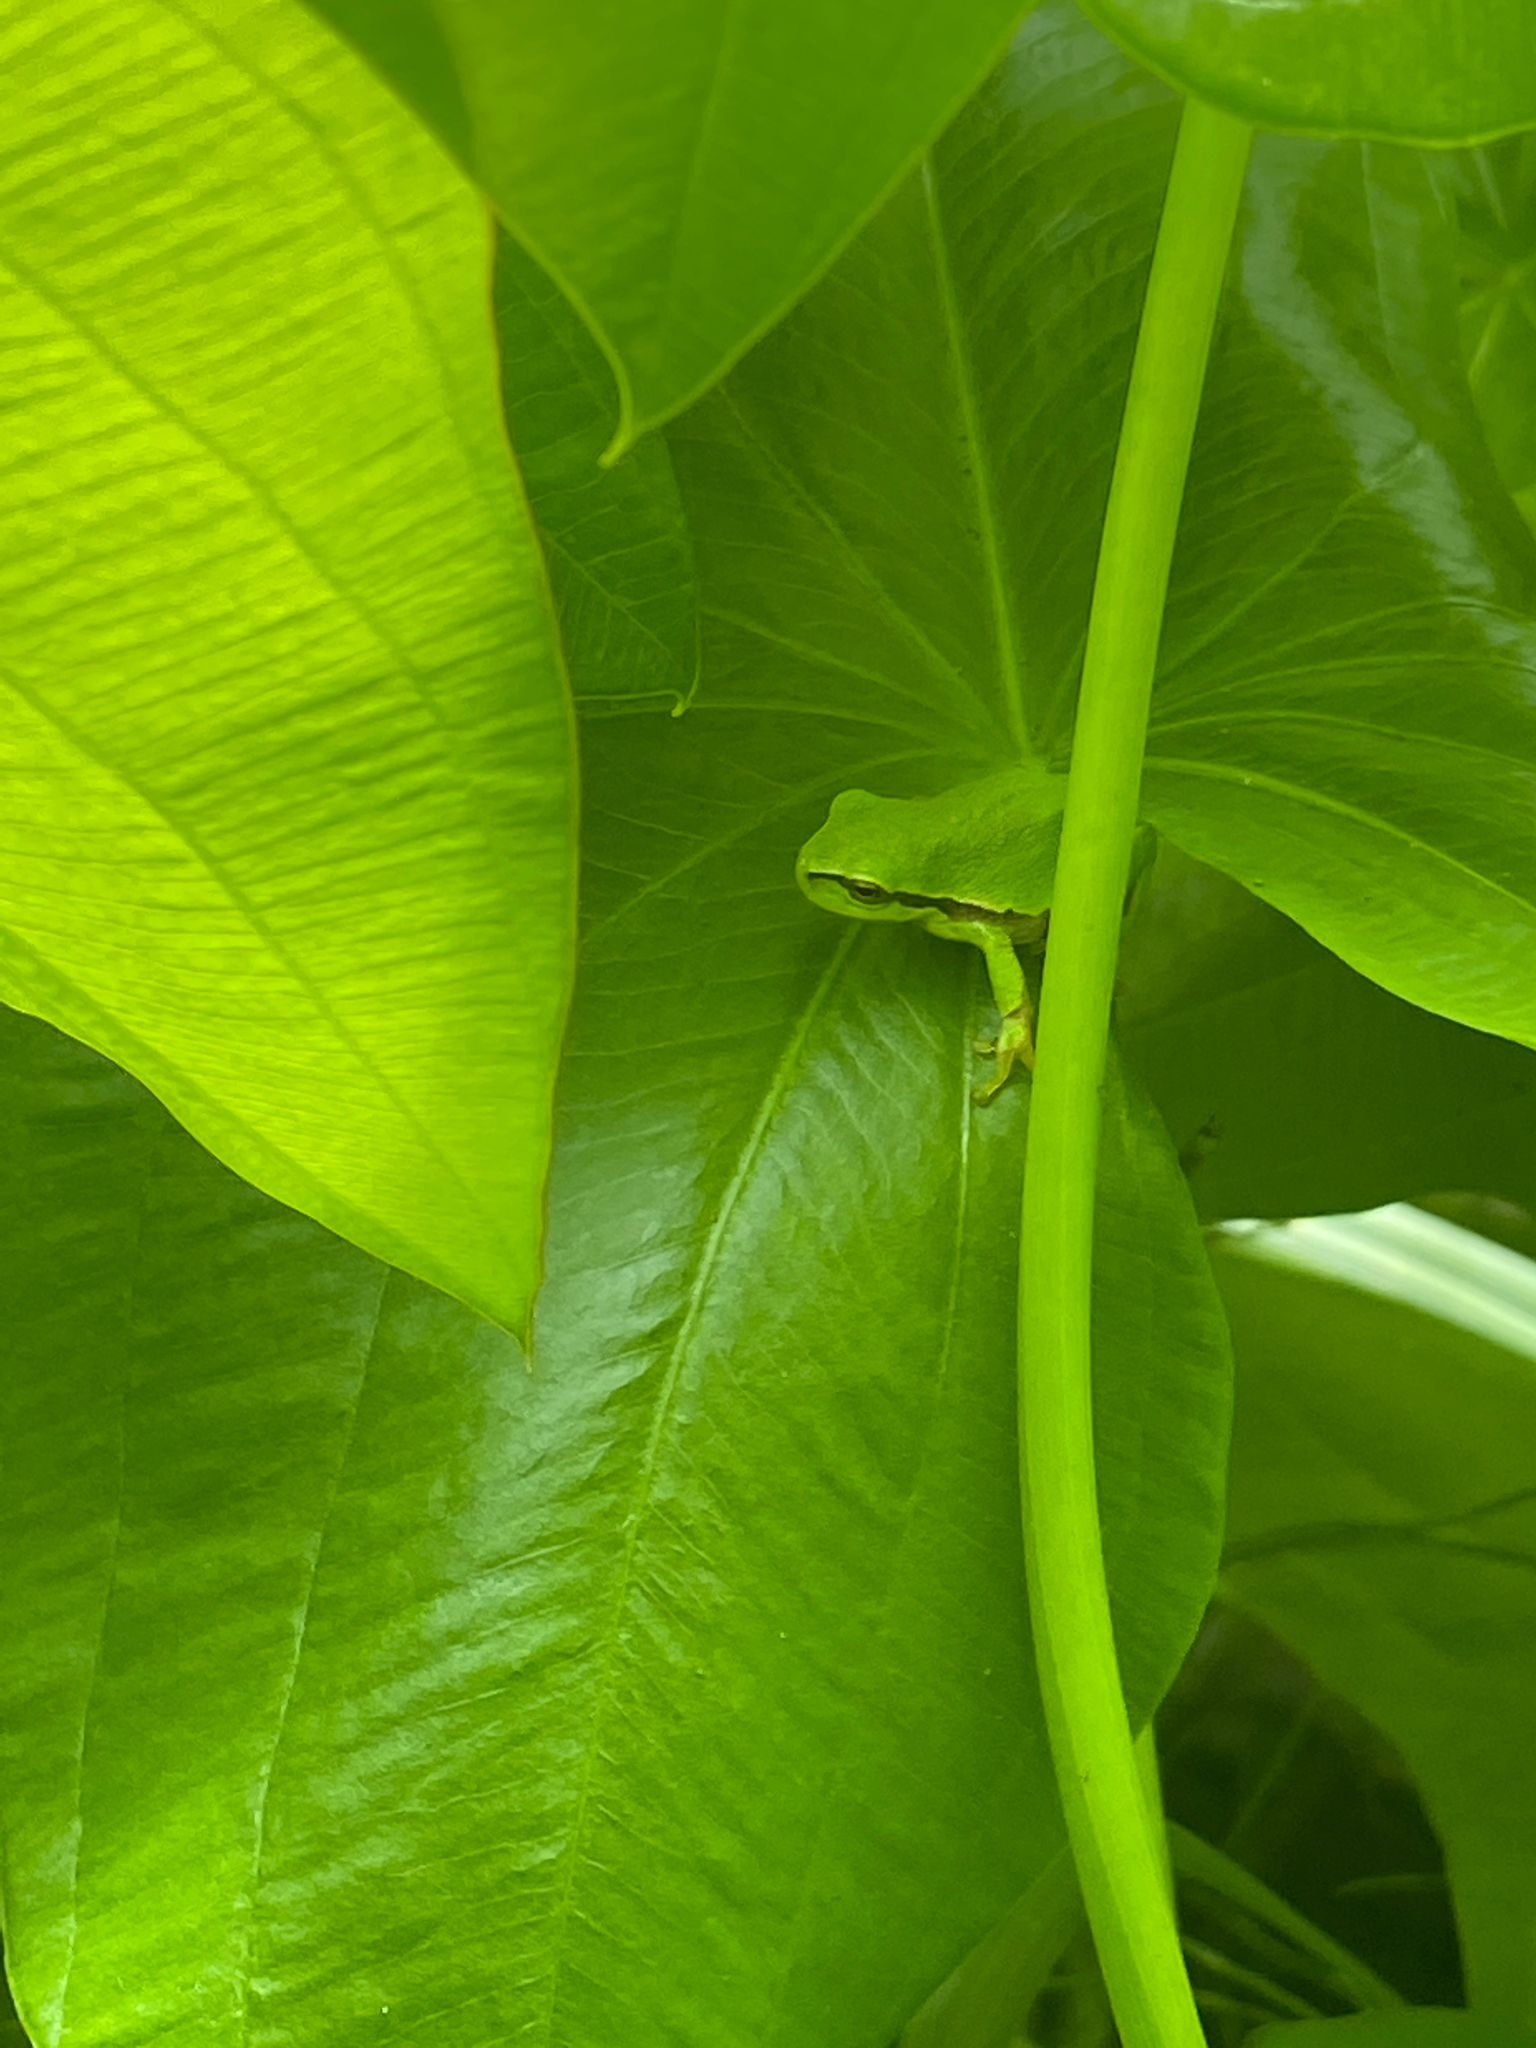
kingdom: Animalia
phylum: Chordata
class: Amphibia
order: Anura
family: Hylidae
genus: Hyla
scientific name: Hyla arborea
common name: Common tree frog
